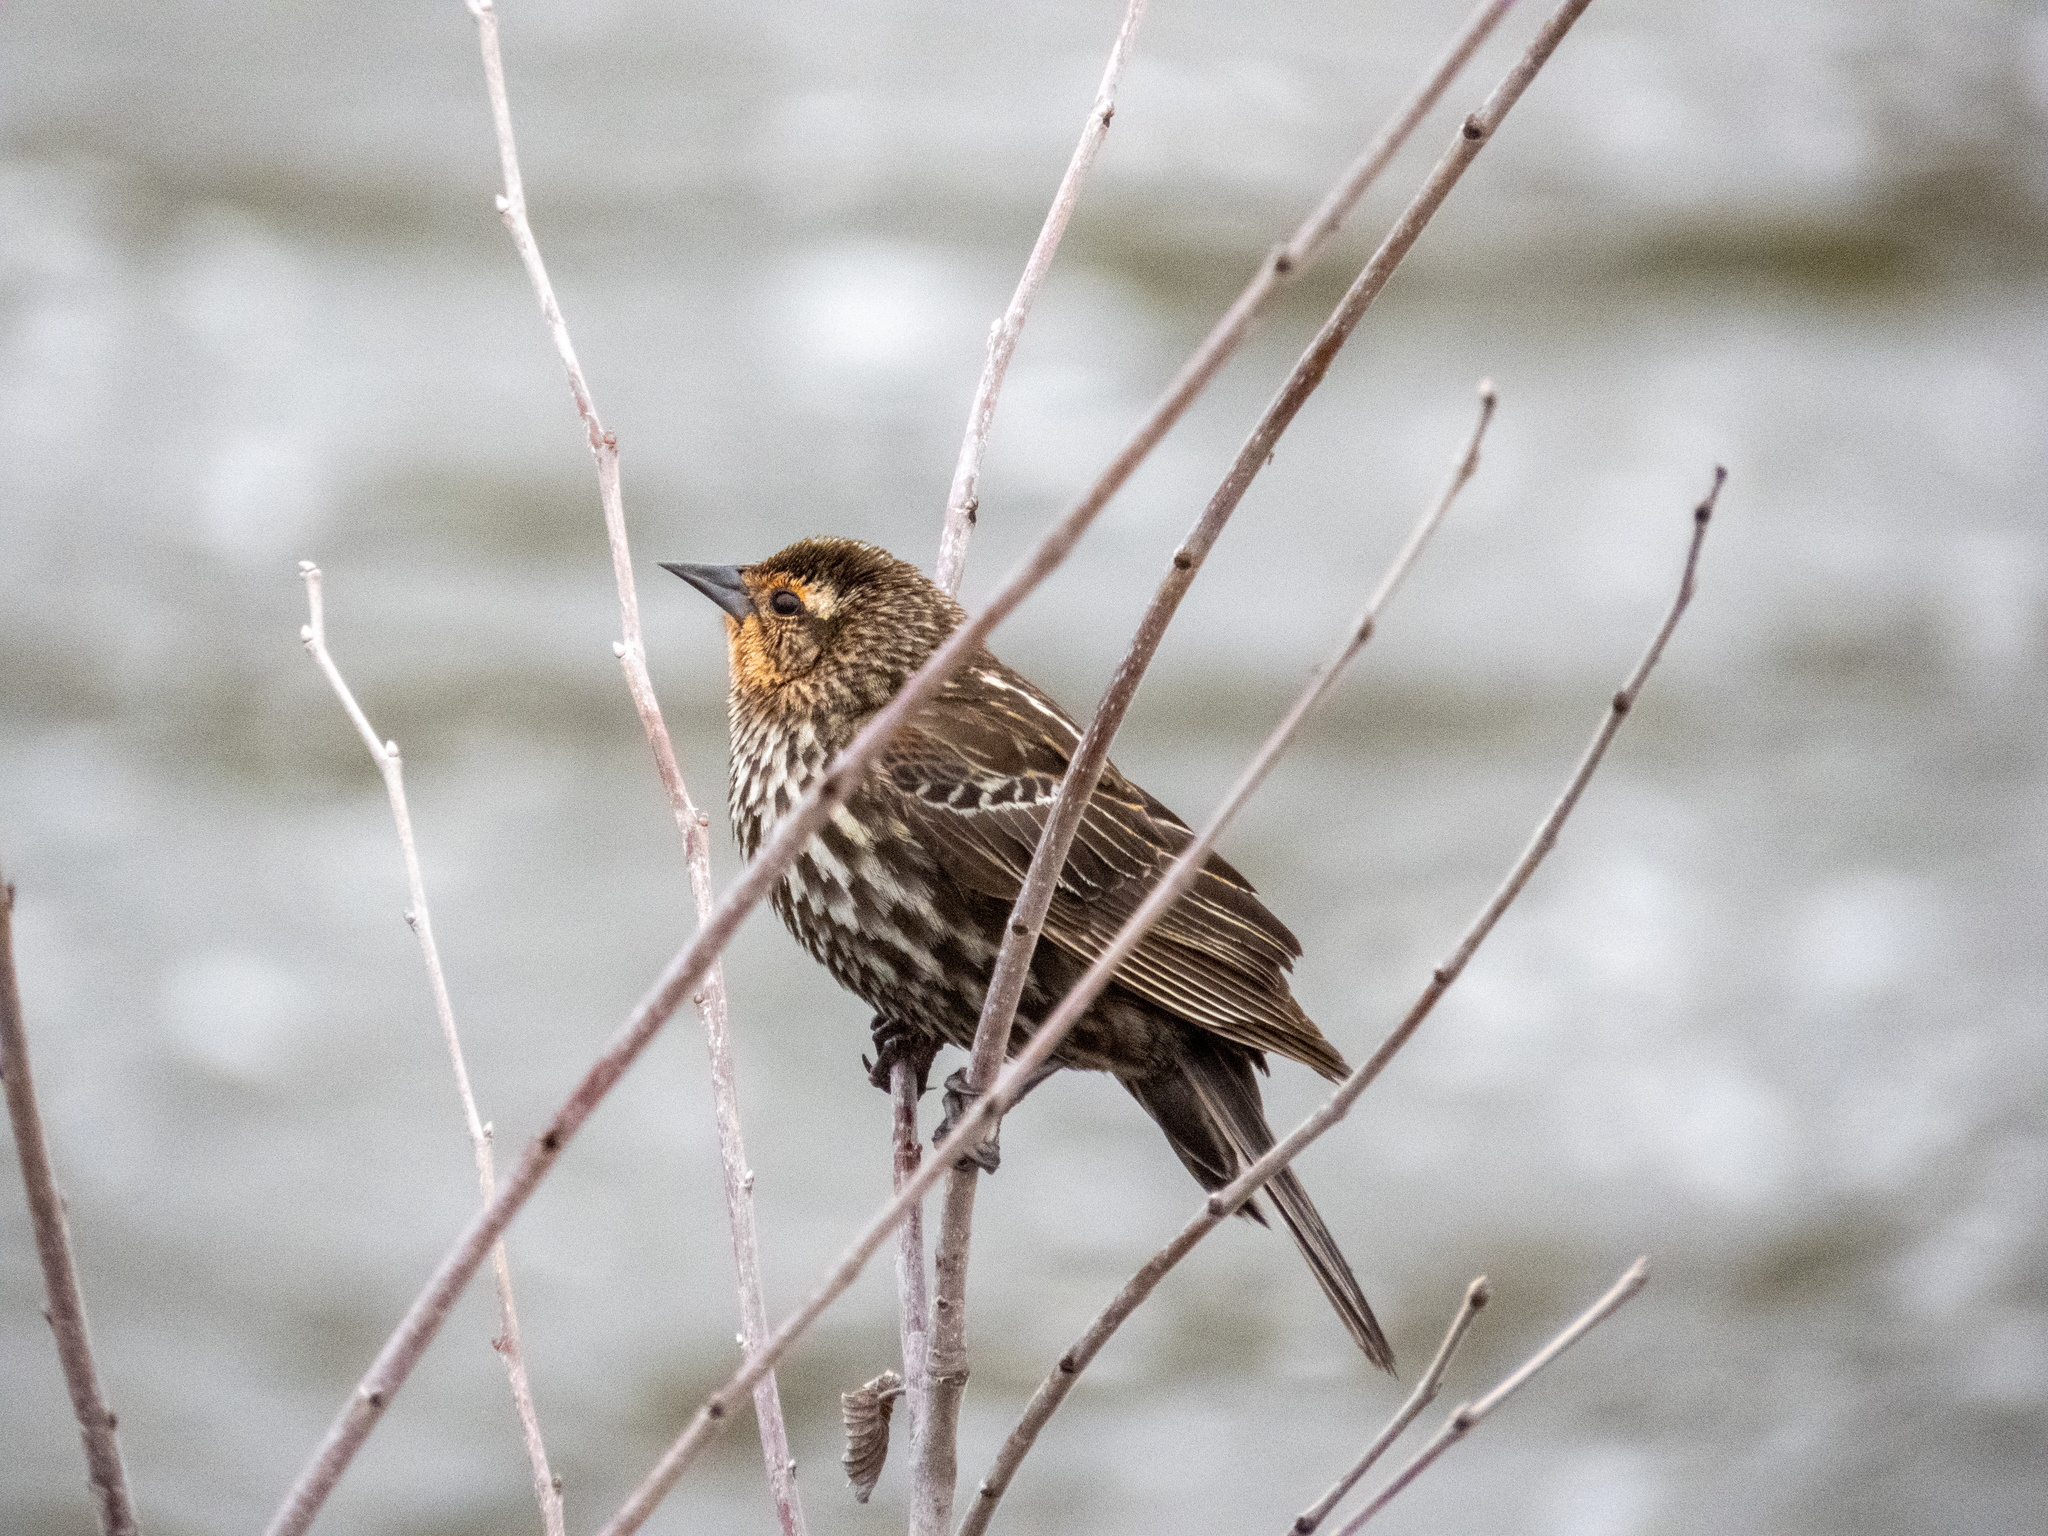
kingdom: Animalia
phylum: Chordata
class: Aves
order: Passeriformes
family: Icteridae
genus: Agelaius
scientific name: Agelaius phoeniceus
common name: Red-winged blackbird
